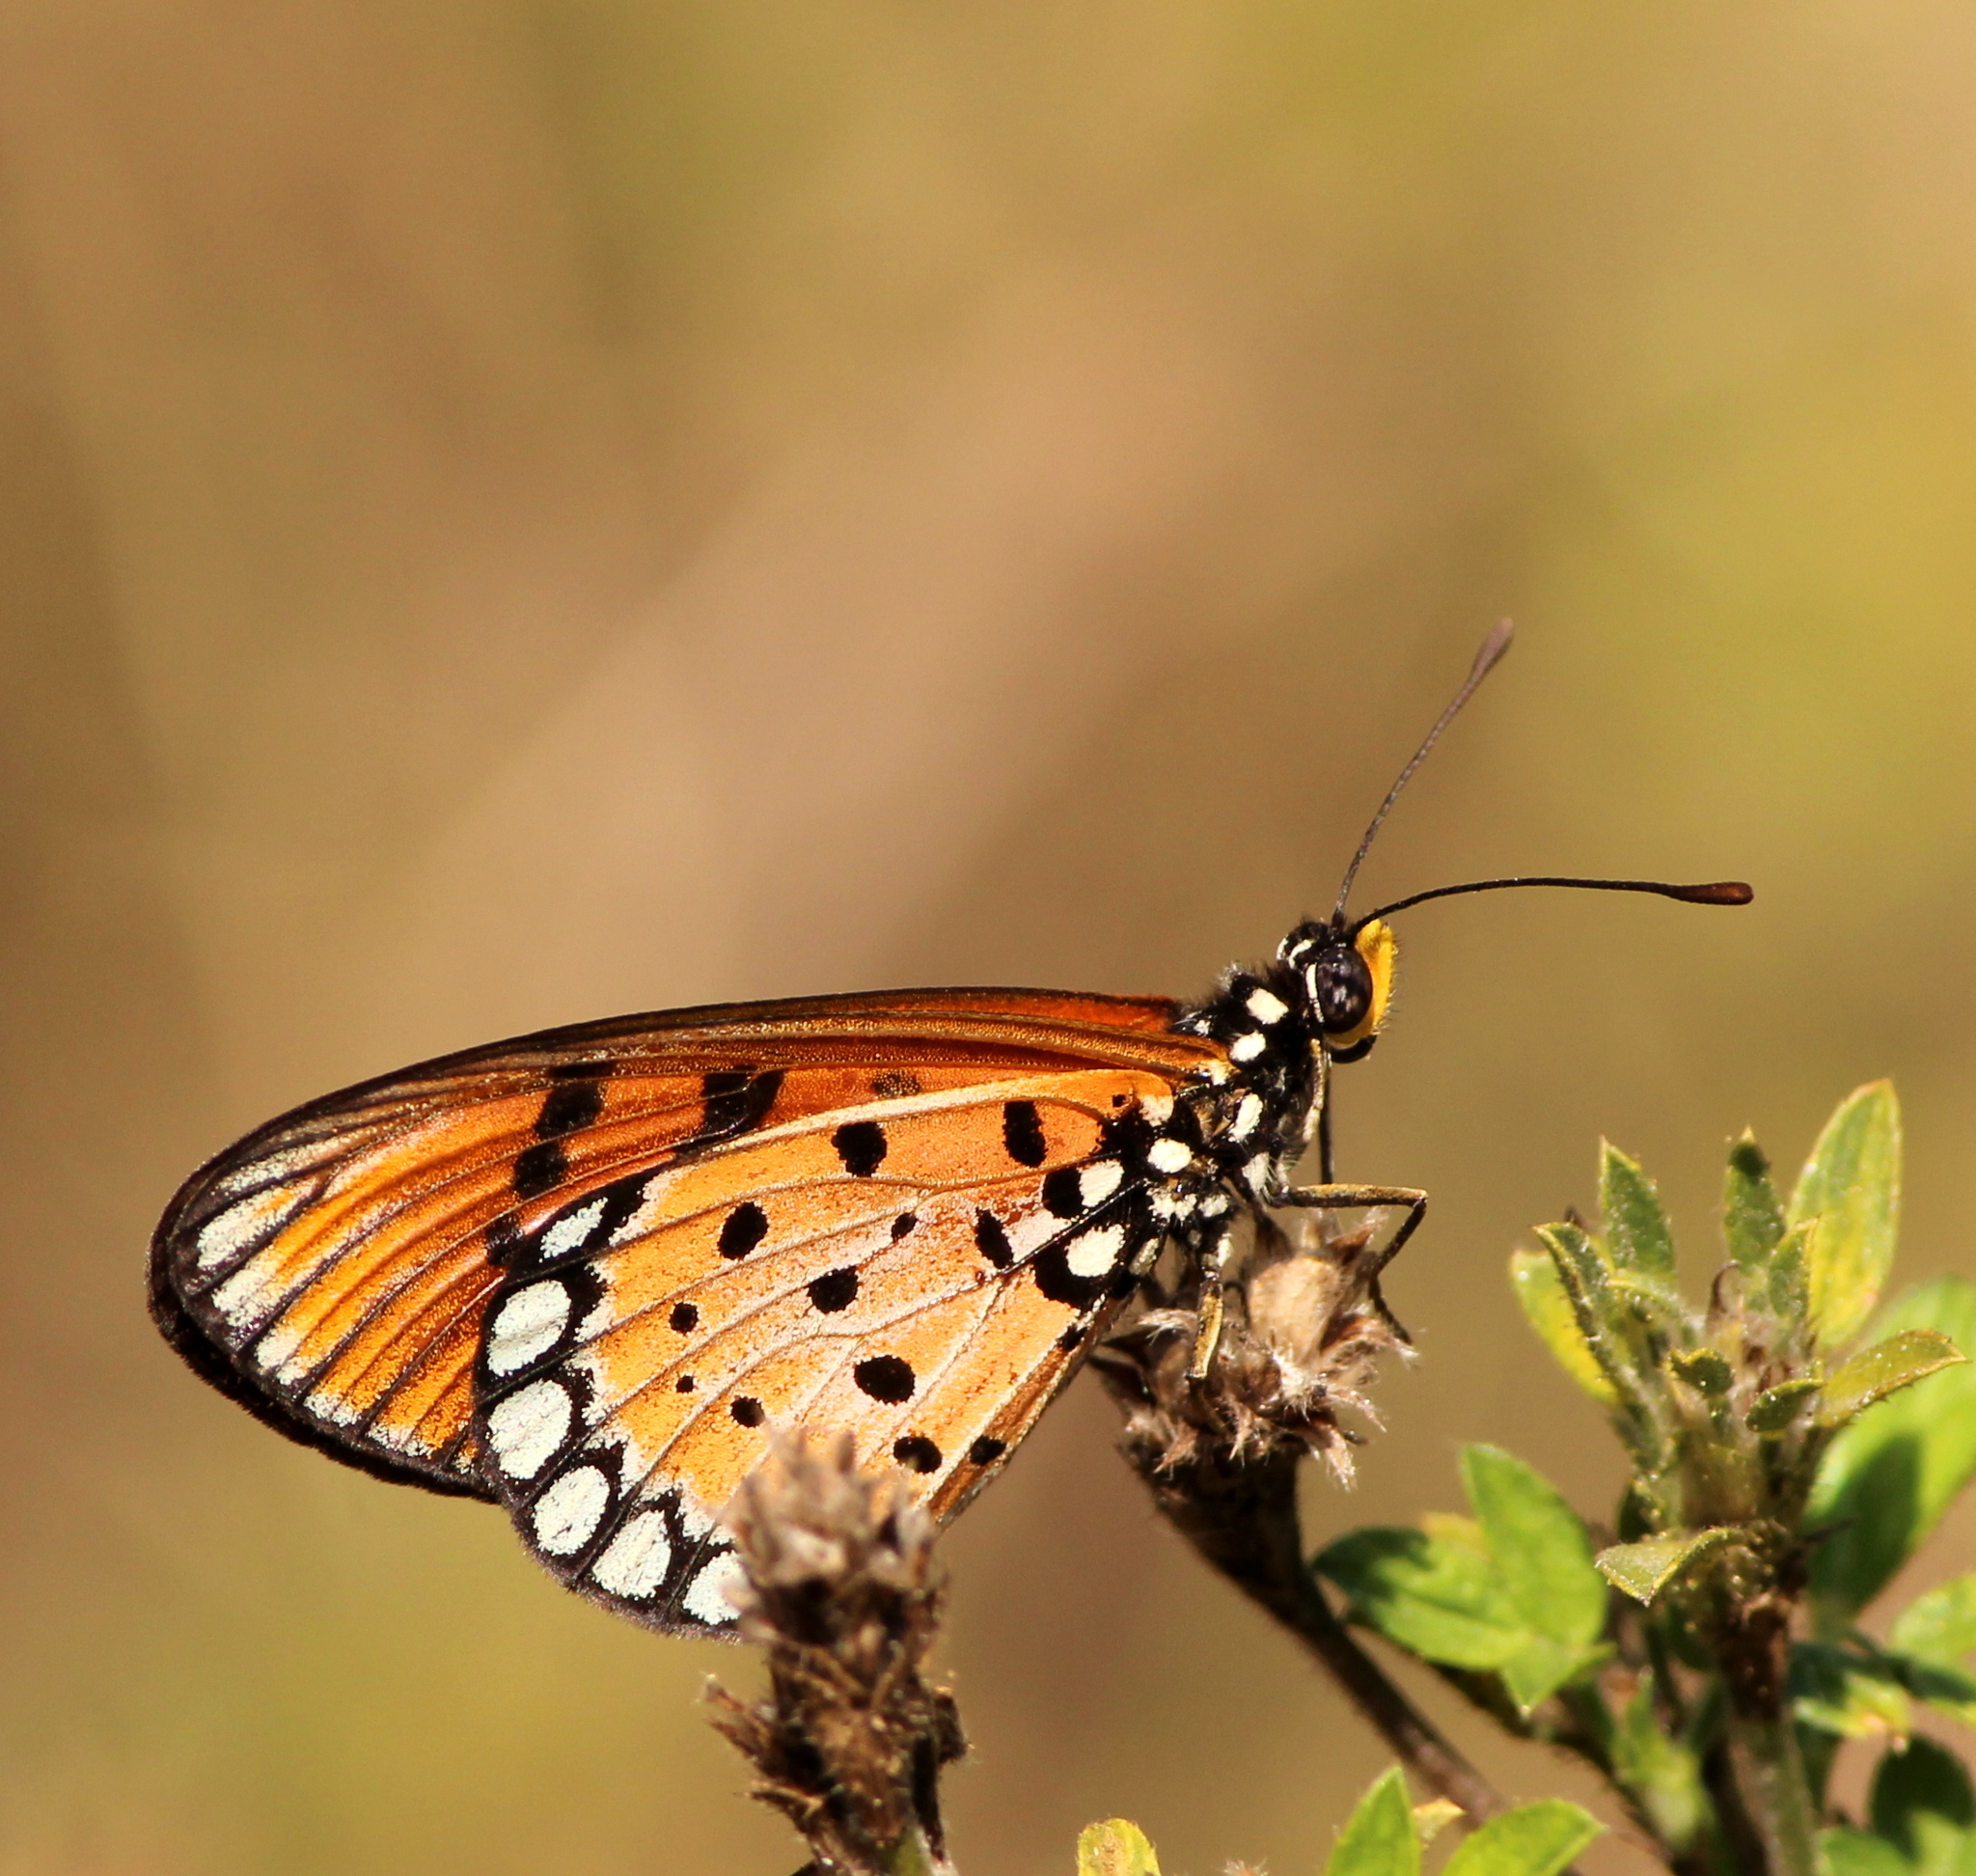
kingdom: Animalia
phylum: Arthropoda
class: Insecta
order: Lepidoptera
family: Nymphalidae
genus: Acraea
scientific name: Acraea terpsicore
